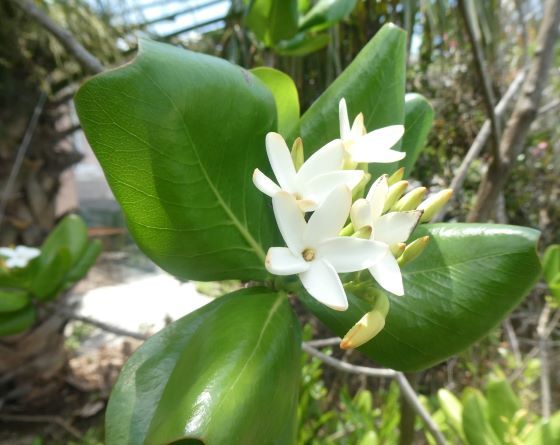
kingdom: Plantae
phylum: Tracheophyta
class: Magnoliopsida
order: Gentianales
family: Rubiaceae
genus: Casasia
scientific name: Casasia clusiifolia
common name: Seven-year apple
